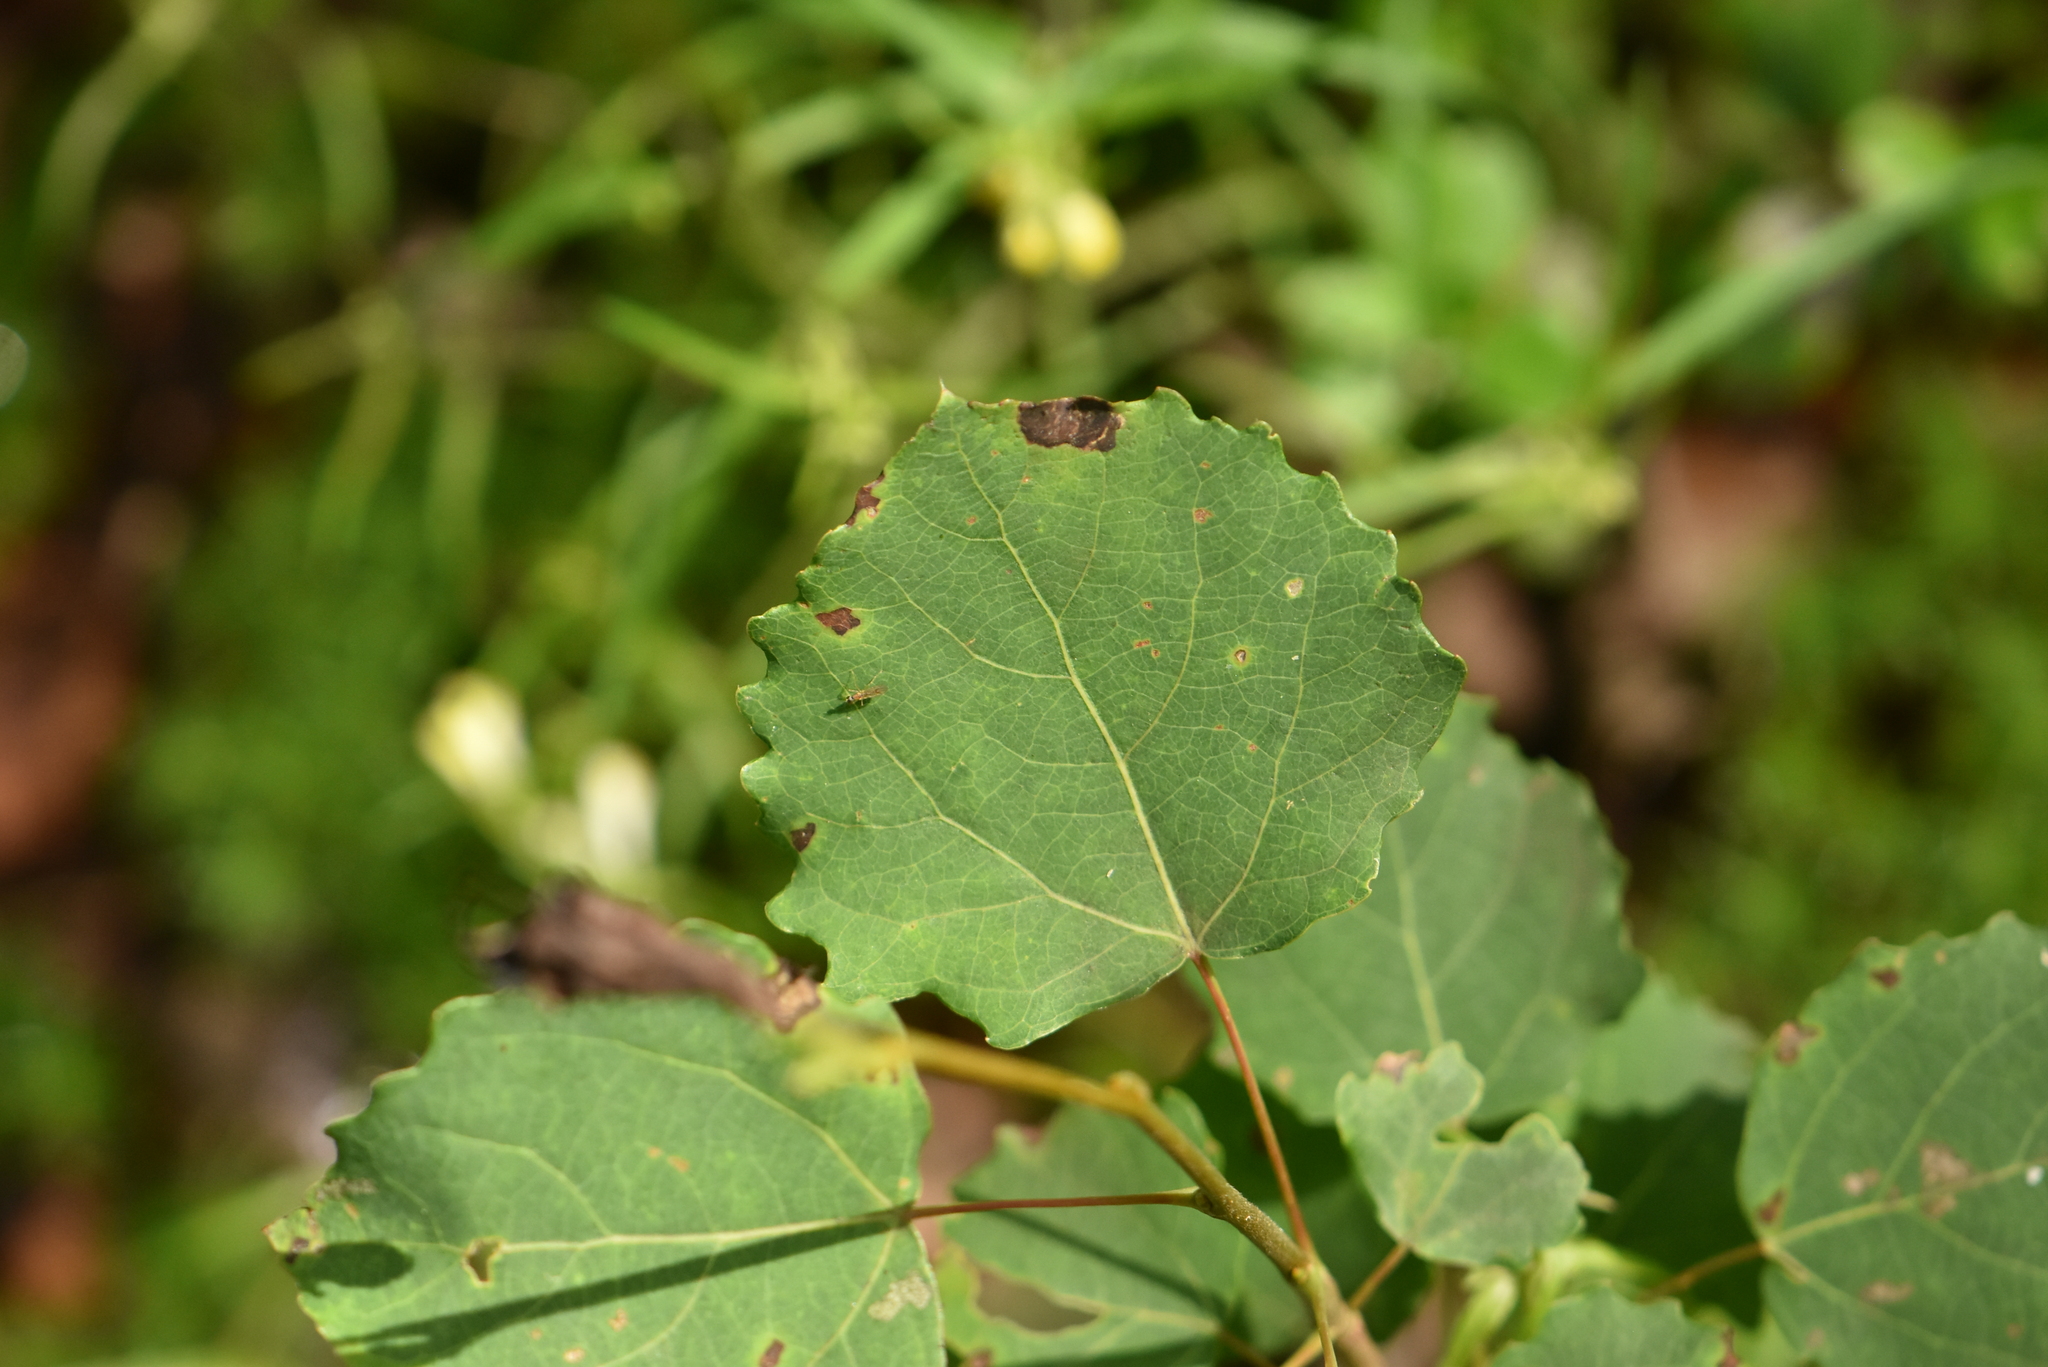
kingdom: Plantae
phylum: Tracheophyta
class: Magnoliopsida
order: Malpighiales
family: Salicaceae
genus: Populus
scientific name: Populus tremula
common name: European aspen
